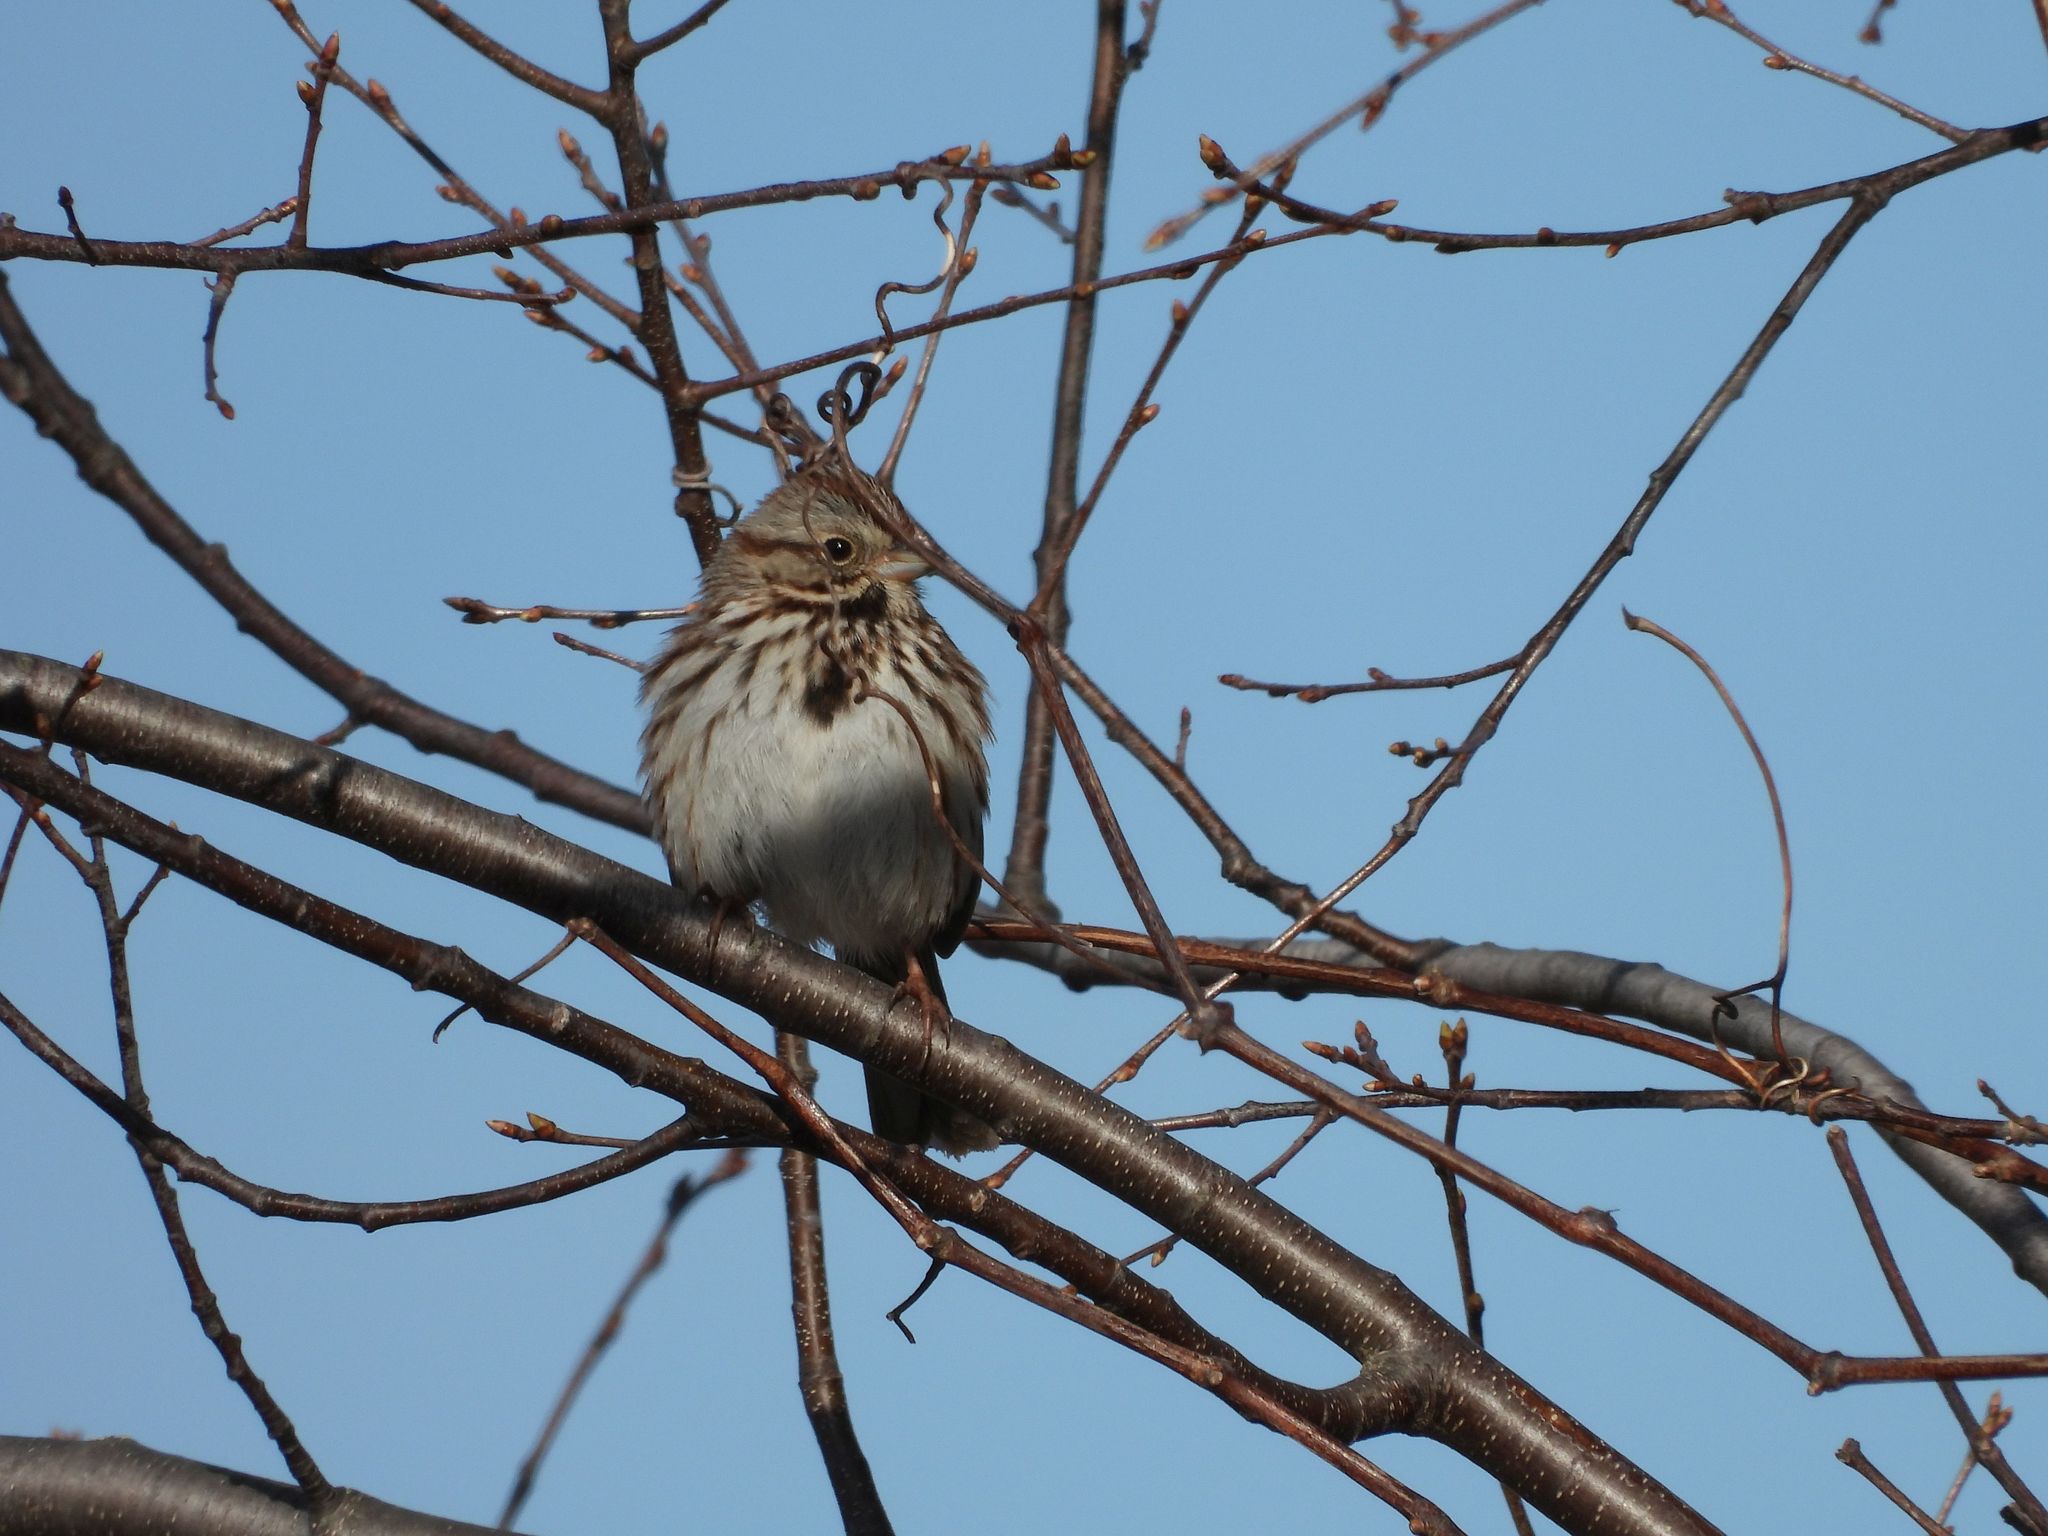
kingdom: Animalia
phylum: Chordata
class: Aves
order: Passeriformes
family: Passerellidae
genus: Melospiza
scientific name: Melospiza melodia
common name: Song sparrow
